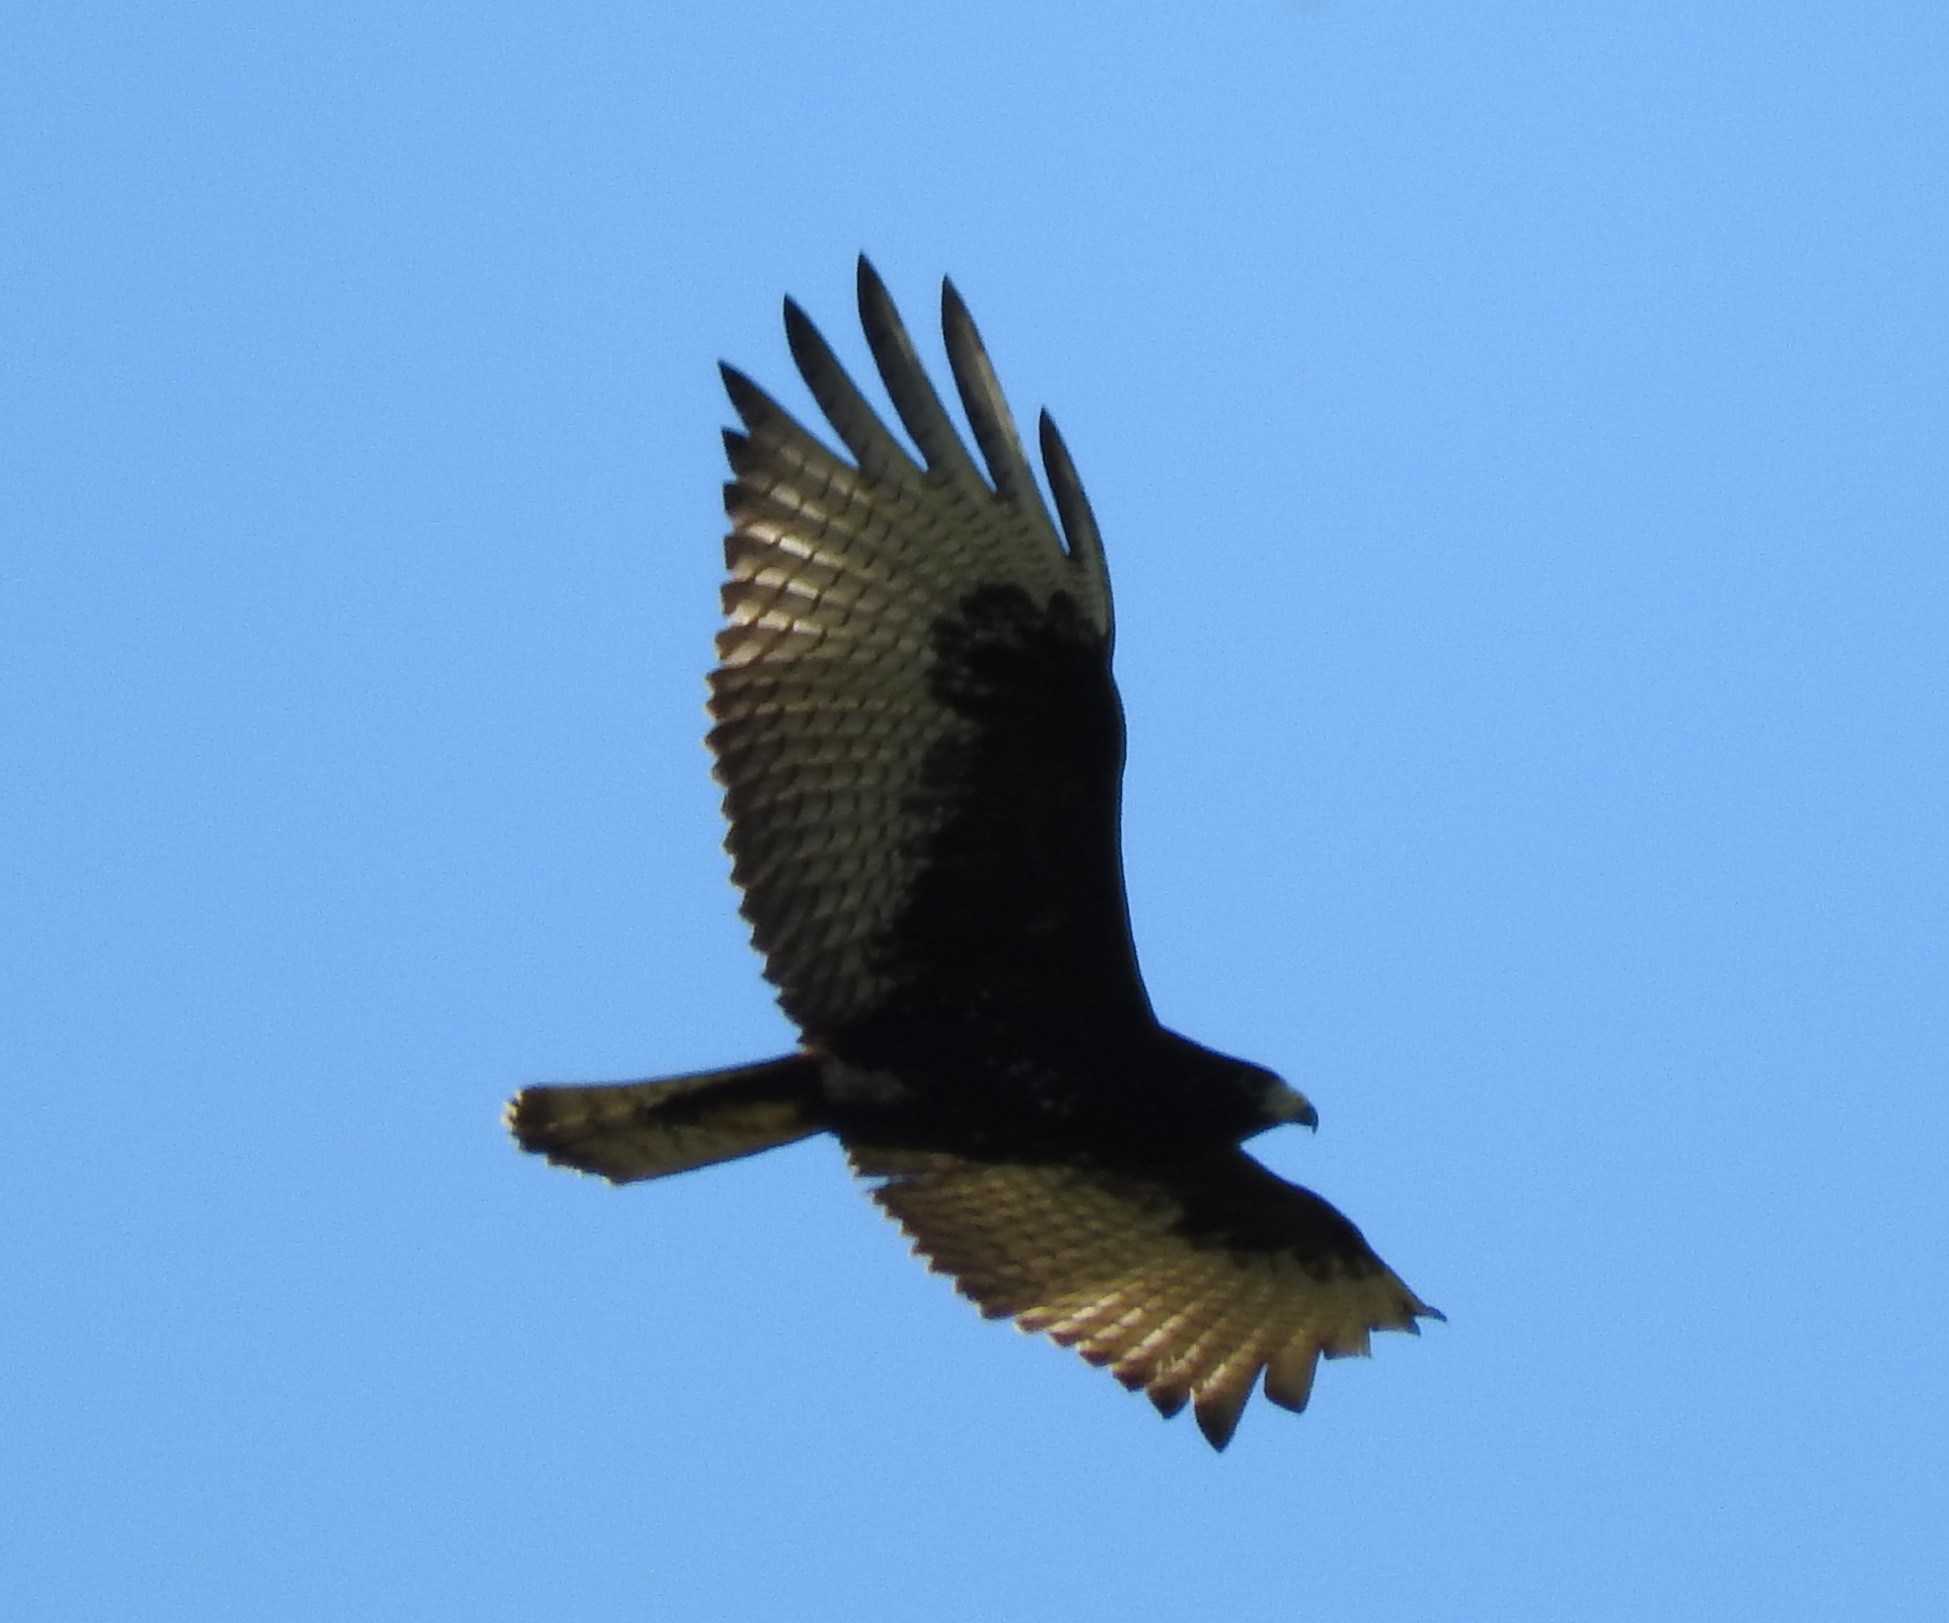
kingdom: Animalia
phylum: Chordata
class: Aves
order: Accipitriformes
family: Accipitridae
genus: Buteo
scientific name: Buteo albonotatus
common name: Zone-tailed hawk
